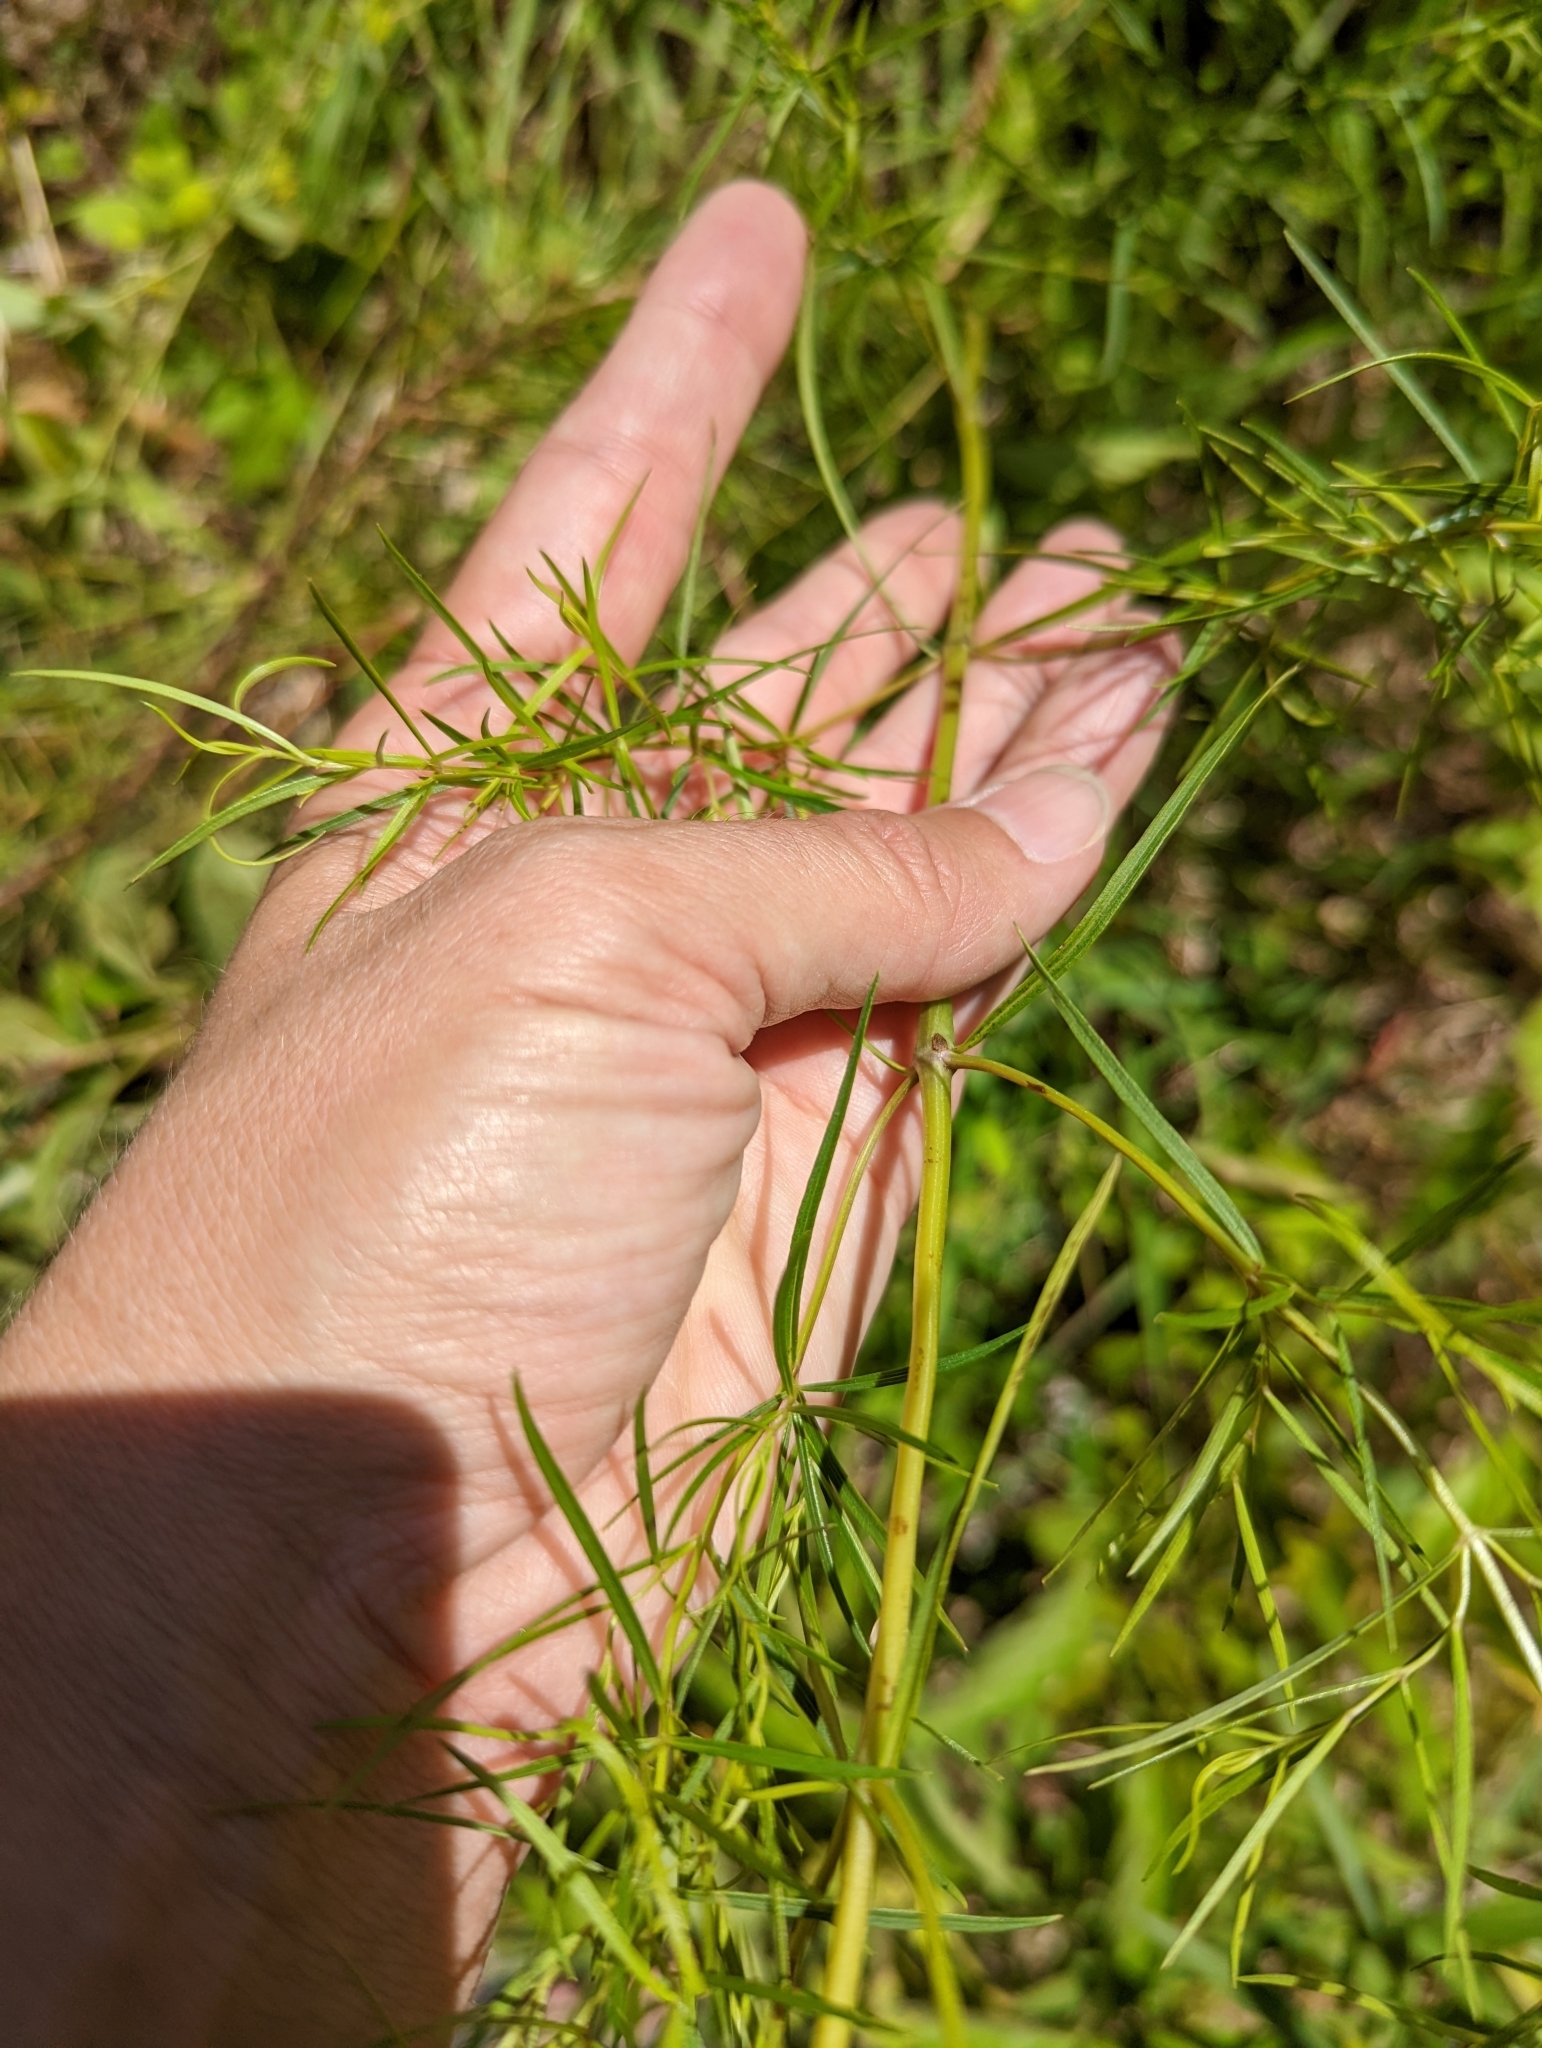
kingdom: Plantae
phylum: Tracheophyta
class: Magnoliopsida
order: Lamiales
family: Lamiaceae
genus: Pycnanthemum
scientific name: Pycnanthemum tenuifolium
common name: Narrow-leaf mountain-mint
